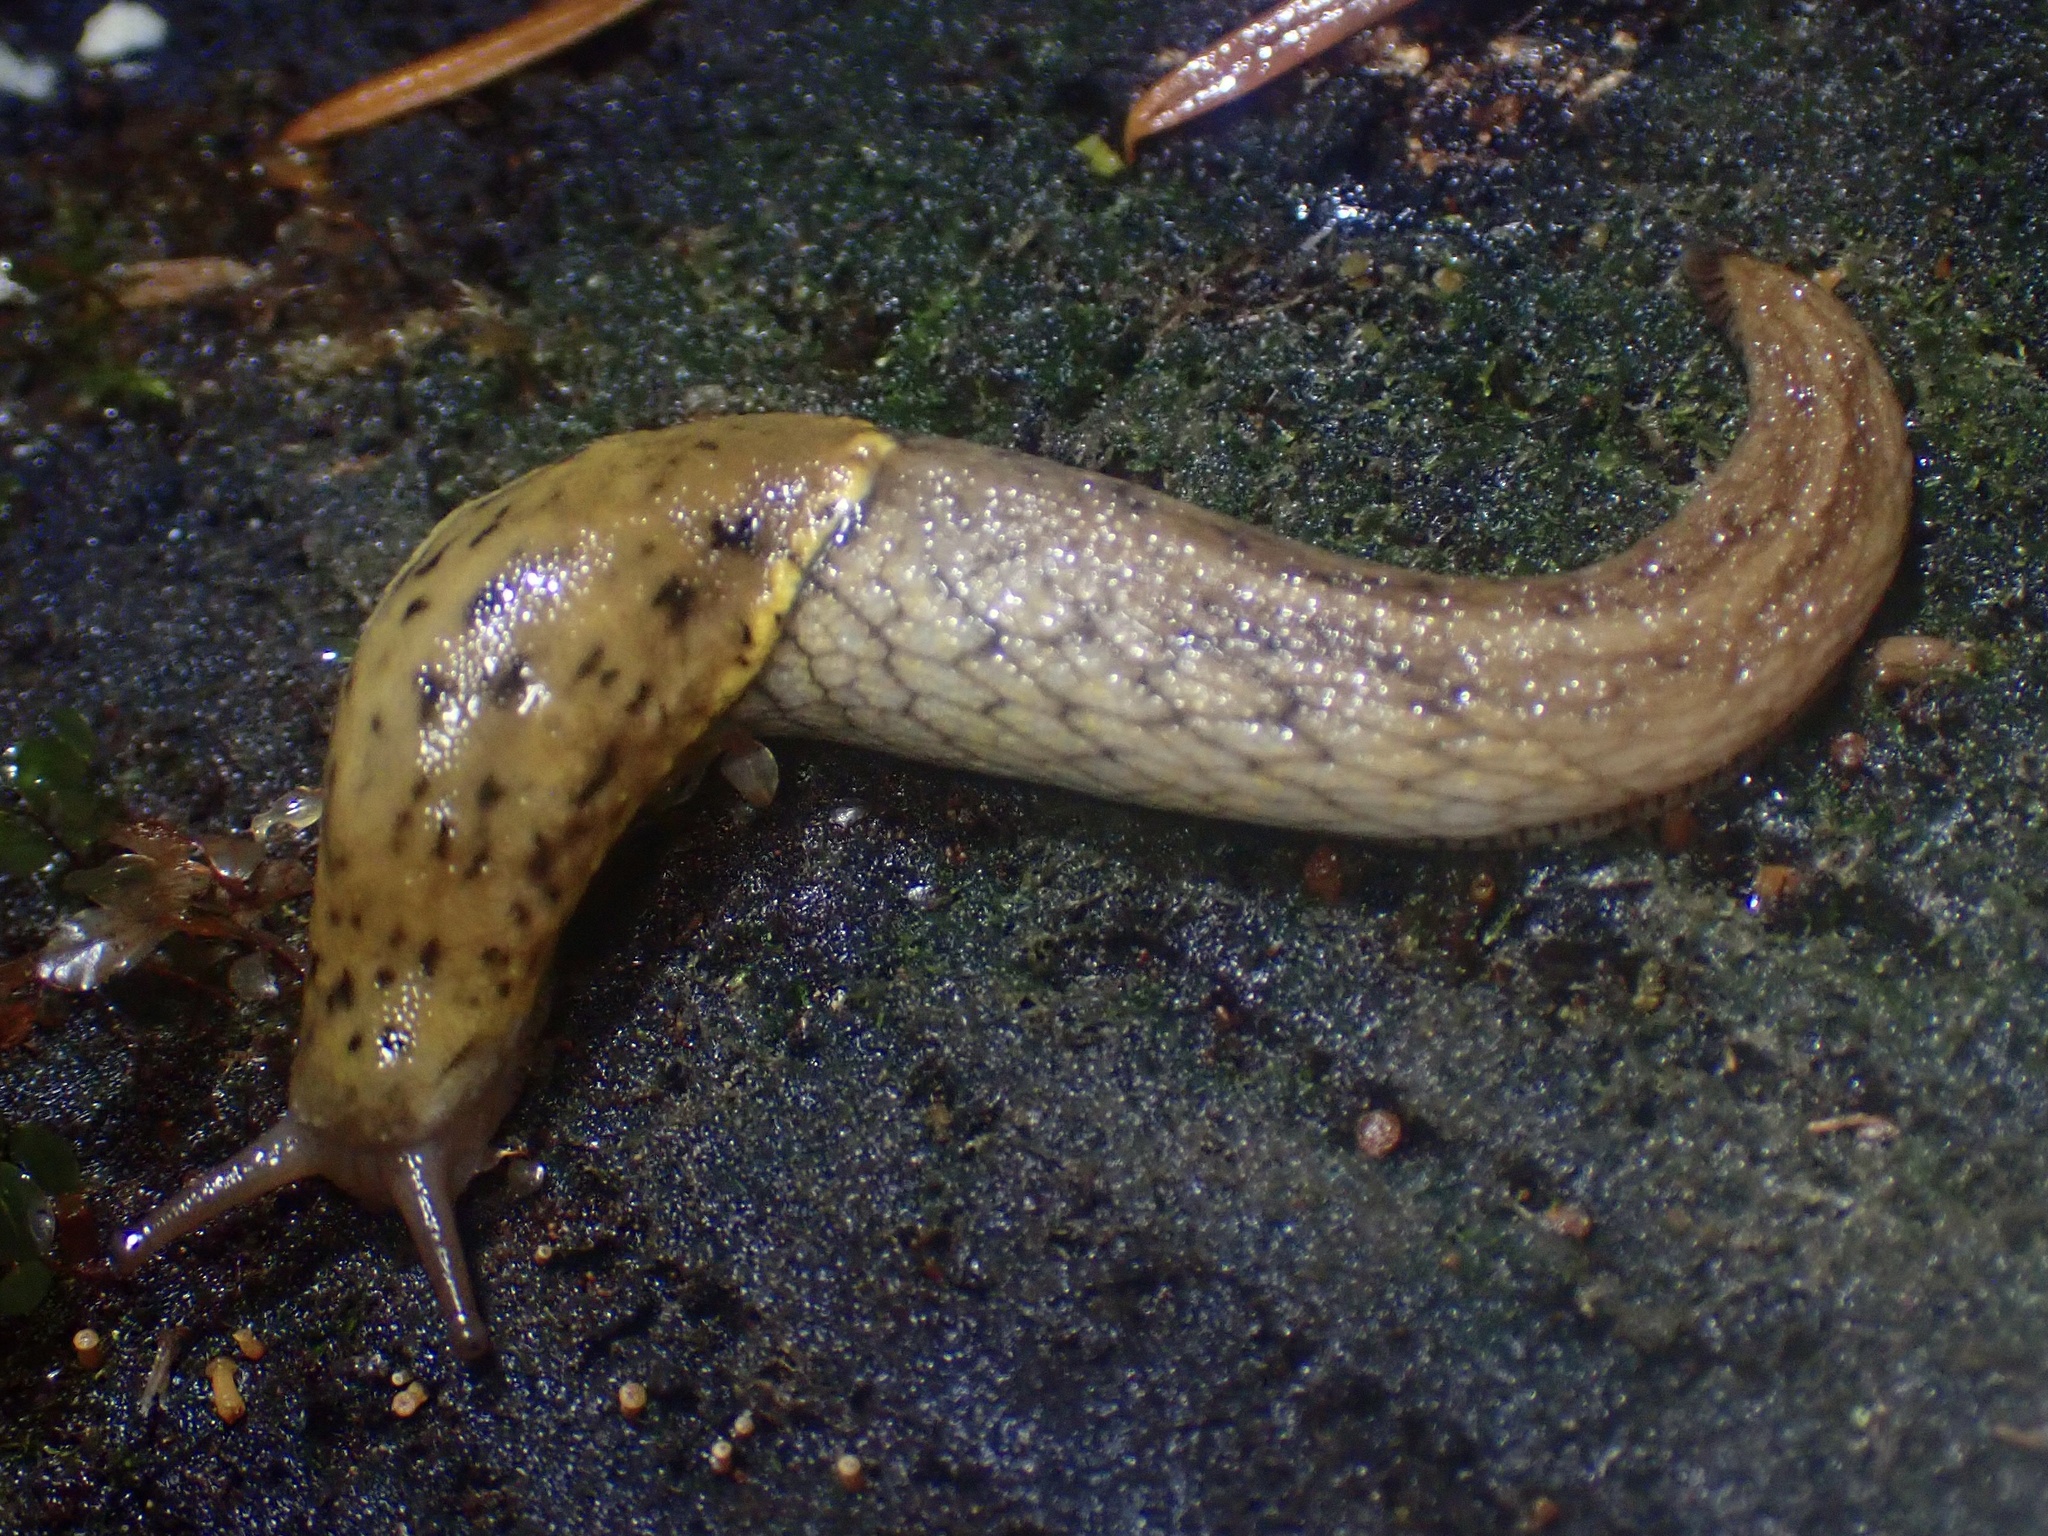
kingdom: Animalia
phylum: Mollusca
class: Gastropoda
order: Stylommatophora
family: Ariolimacidae
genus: Prophysaon
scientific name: Prophysaon foliolatum
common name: Yellow-bordered taildropper
